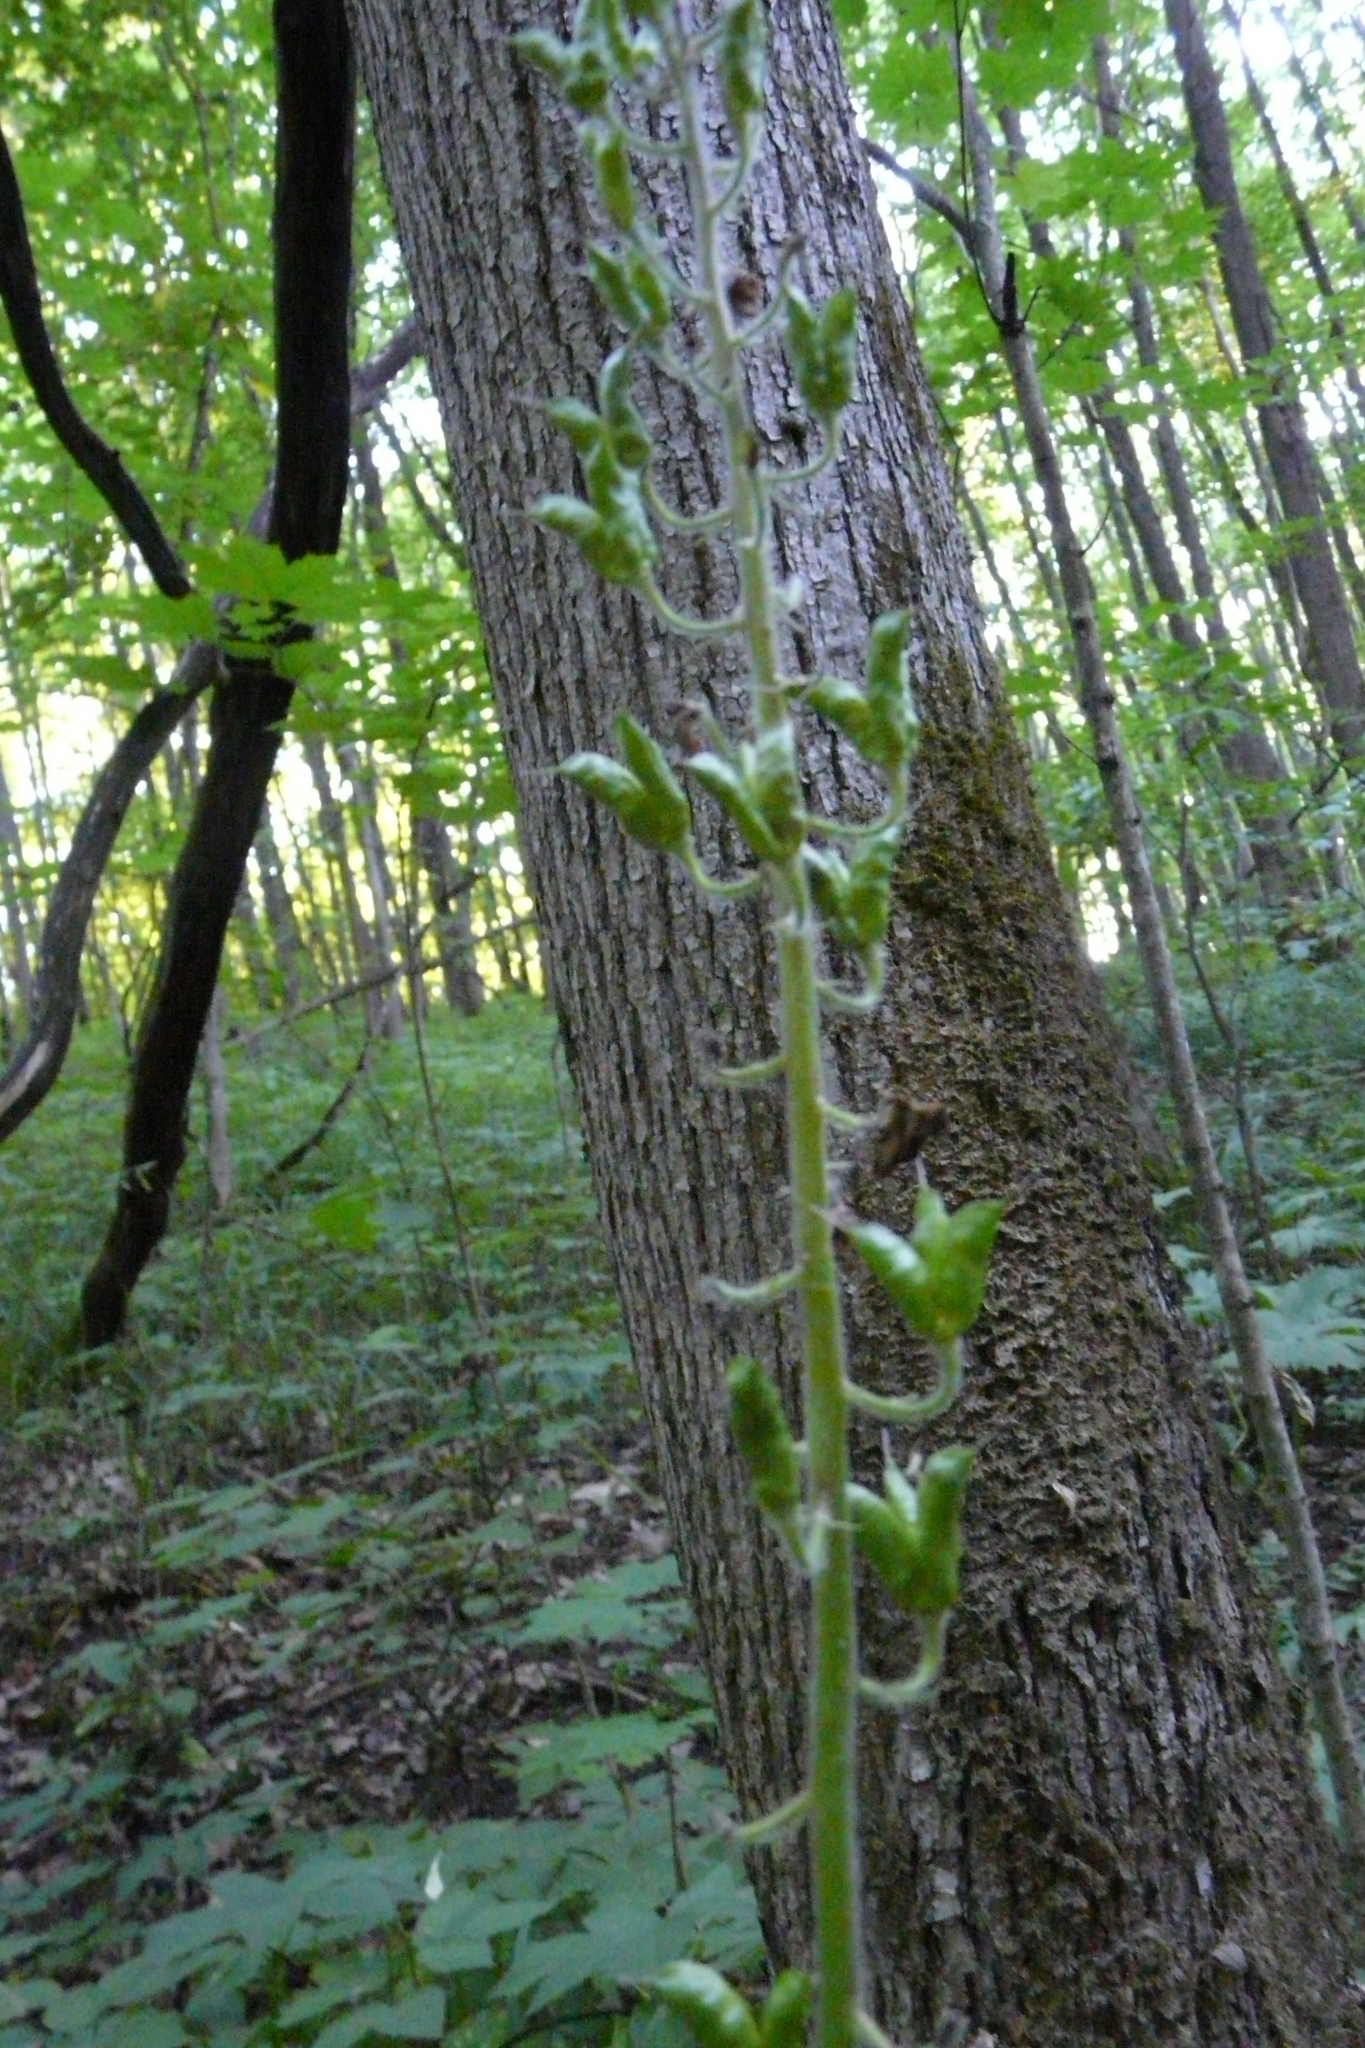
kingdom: Plantae
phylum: Tracheophyta
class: Magnoliopsida
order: Ranunculales
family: Ranunculaceae
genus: Aconitum
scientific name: Aconitum septentrionale
